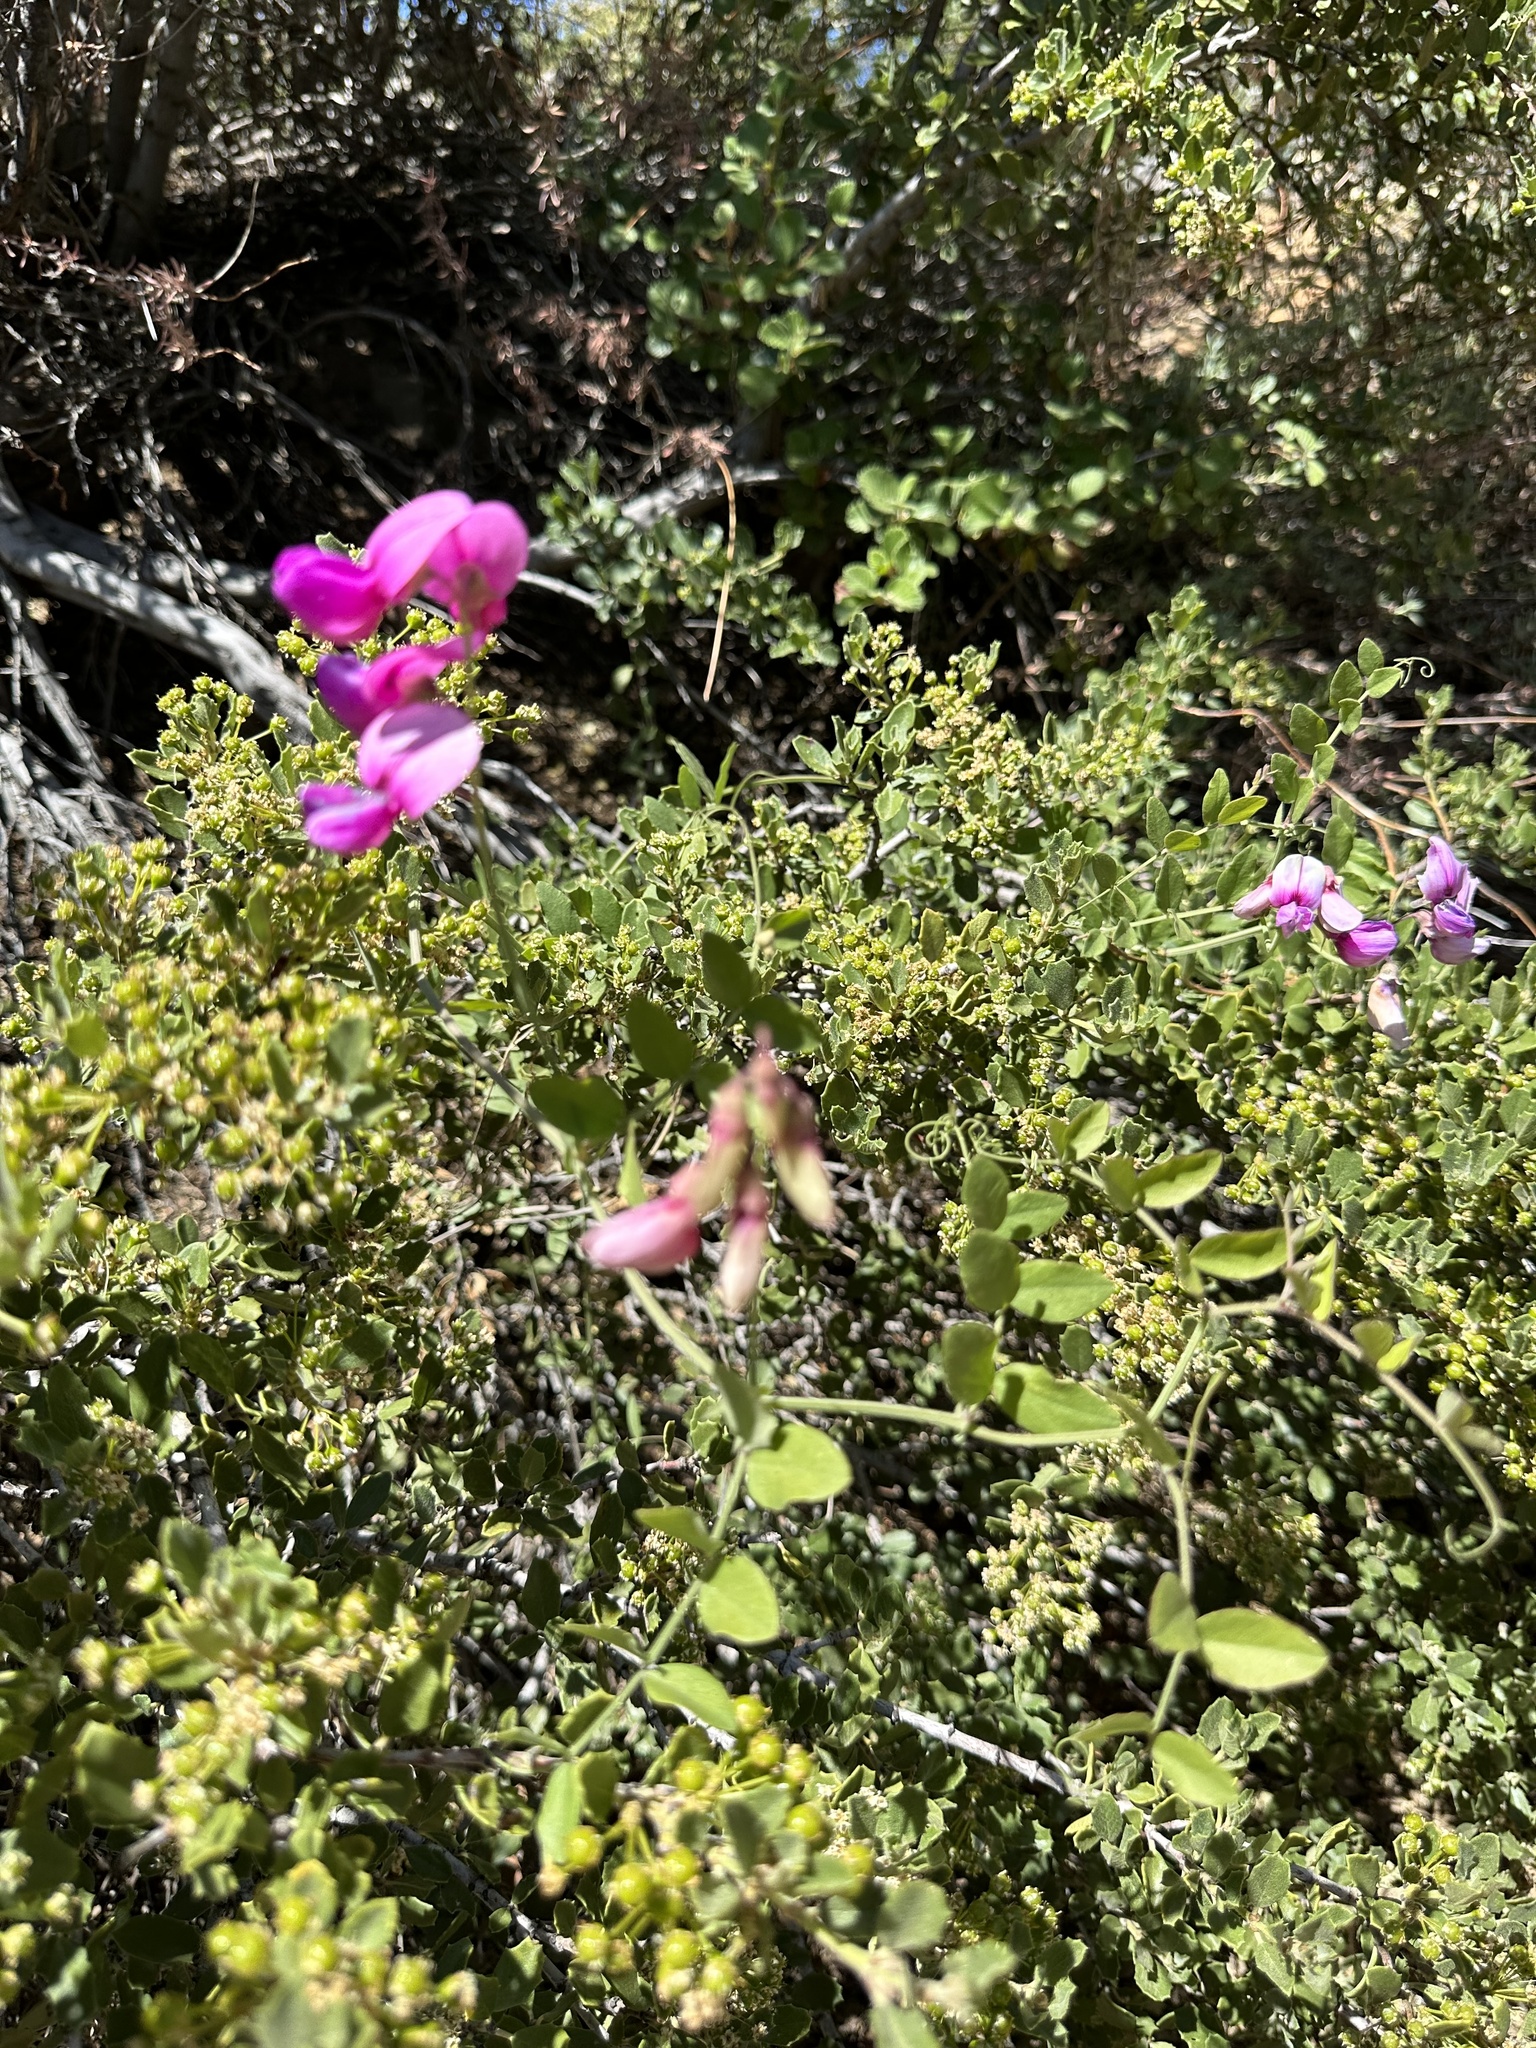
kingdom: Plantae
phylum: Tracheophyta
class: Magnoliopsida
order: Fabales
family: Fabaceae
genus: Lathyrus
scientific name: Lathyrus vestitus
